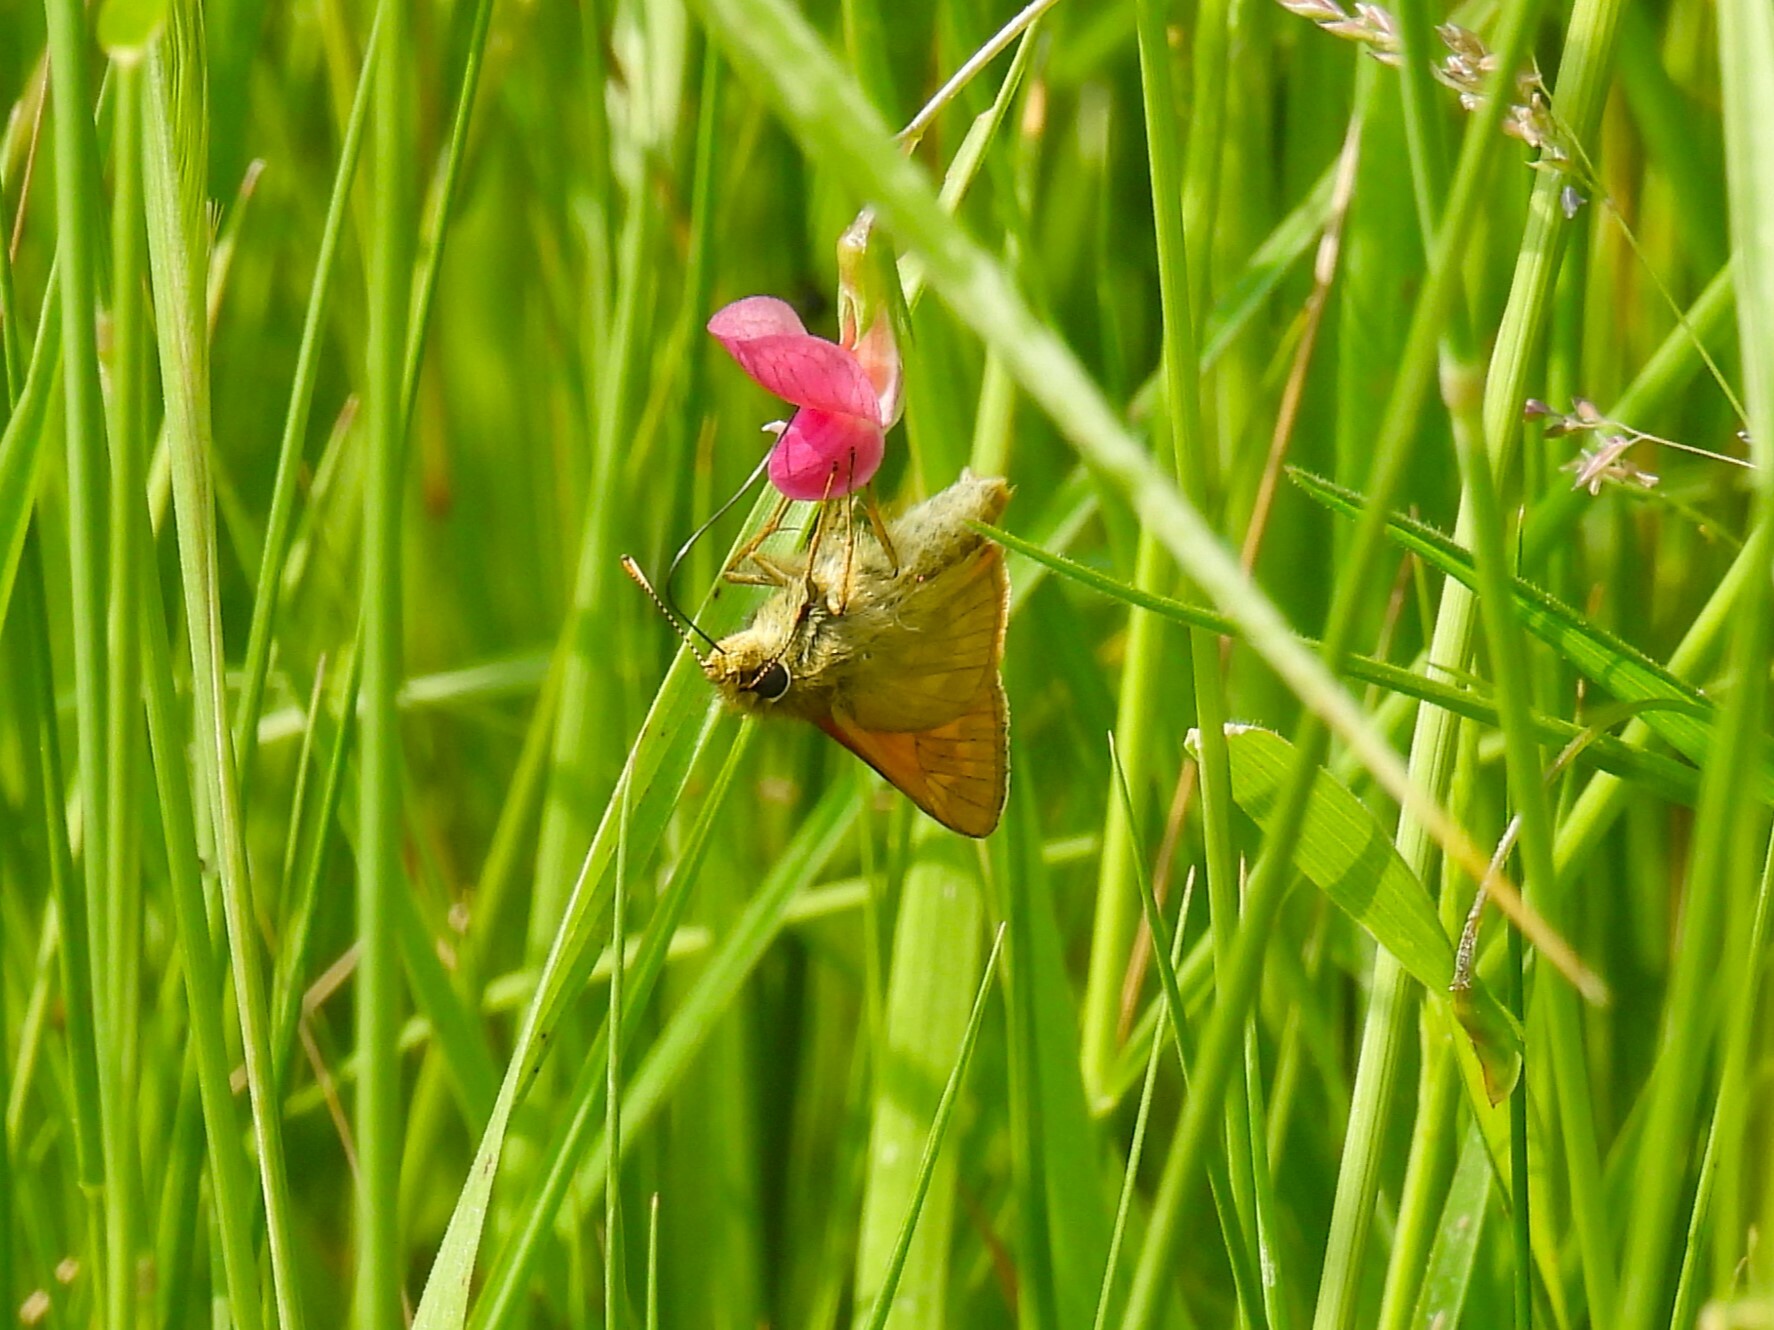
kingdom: Animalia
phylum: Arthropoda
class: Insecta
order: Lepidoptera
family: Hesperiidae
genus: Ochlodes
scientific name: Ochlodes venata
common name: Large skipper
